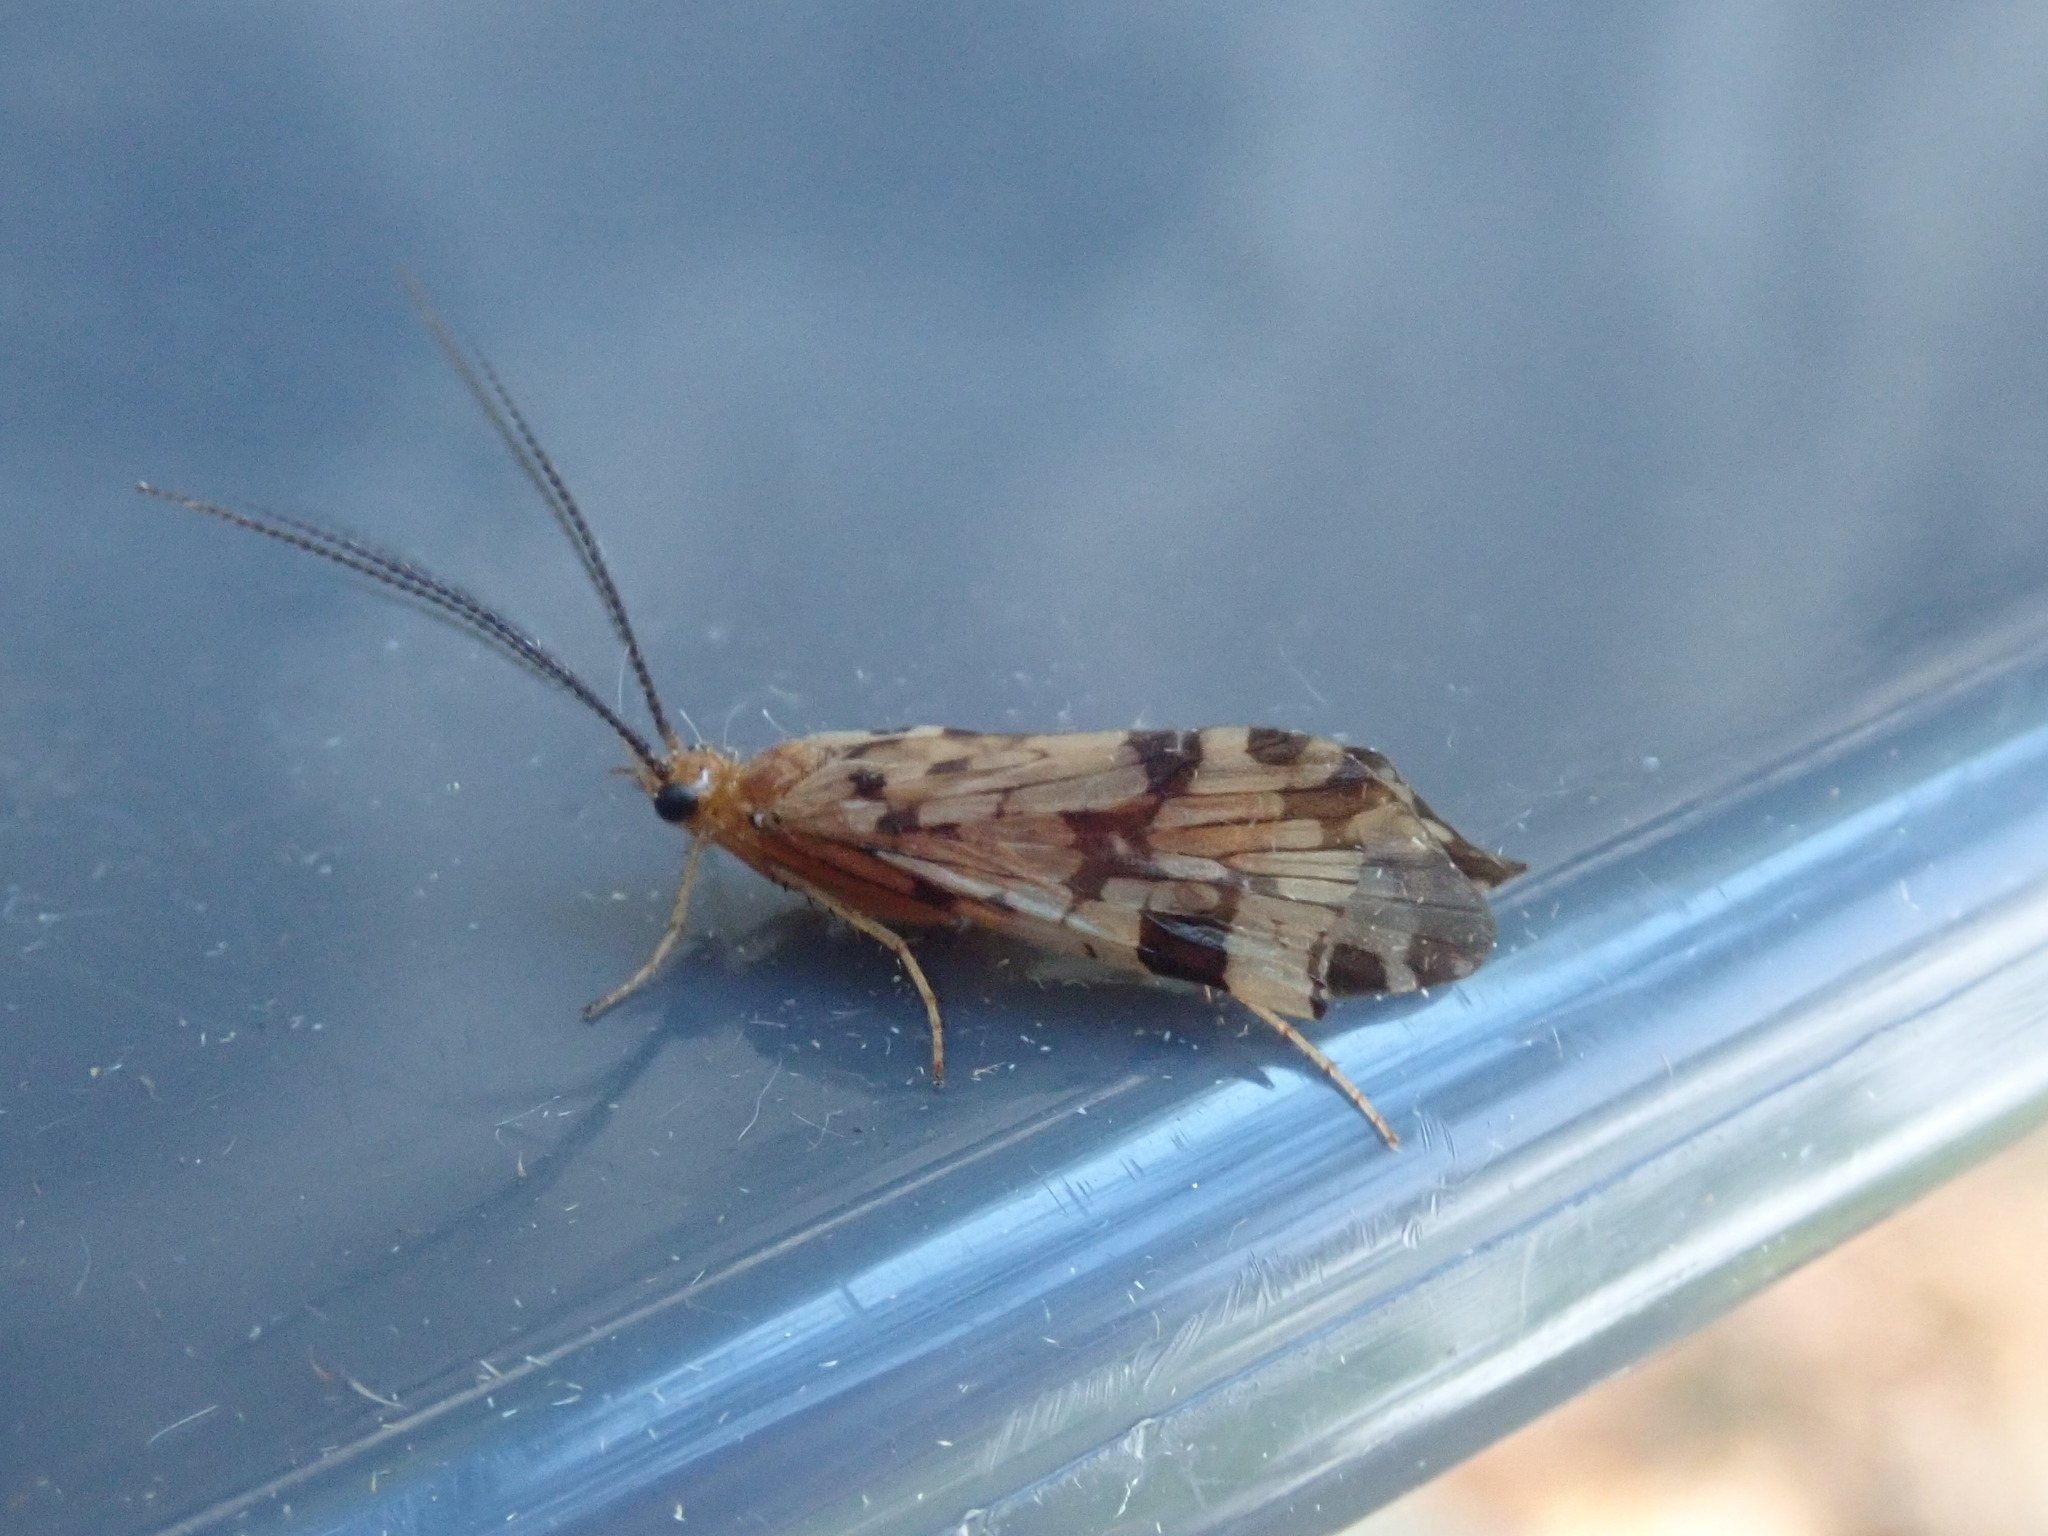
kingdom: Animalia
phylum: Arthropoda
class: Insecta
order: Trichoptera
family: Phryganeidae
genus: Banksiola
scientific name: Banksiola dossuaria
